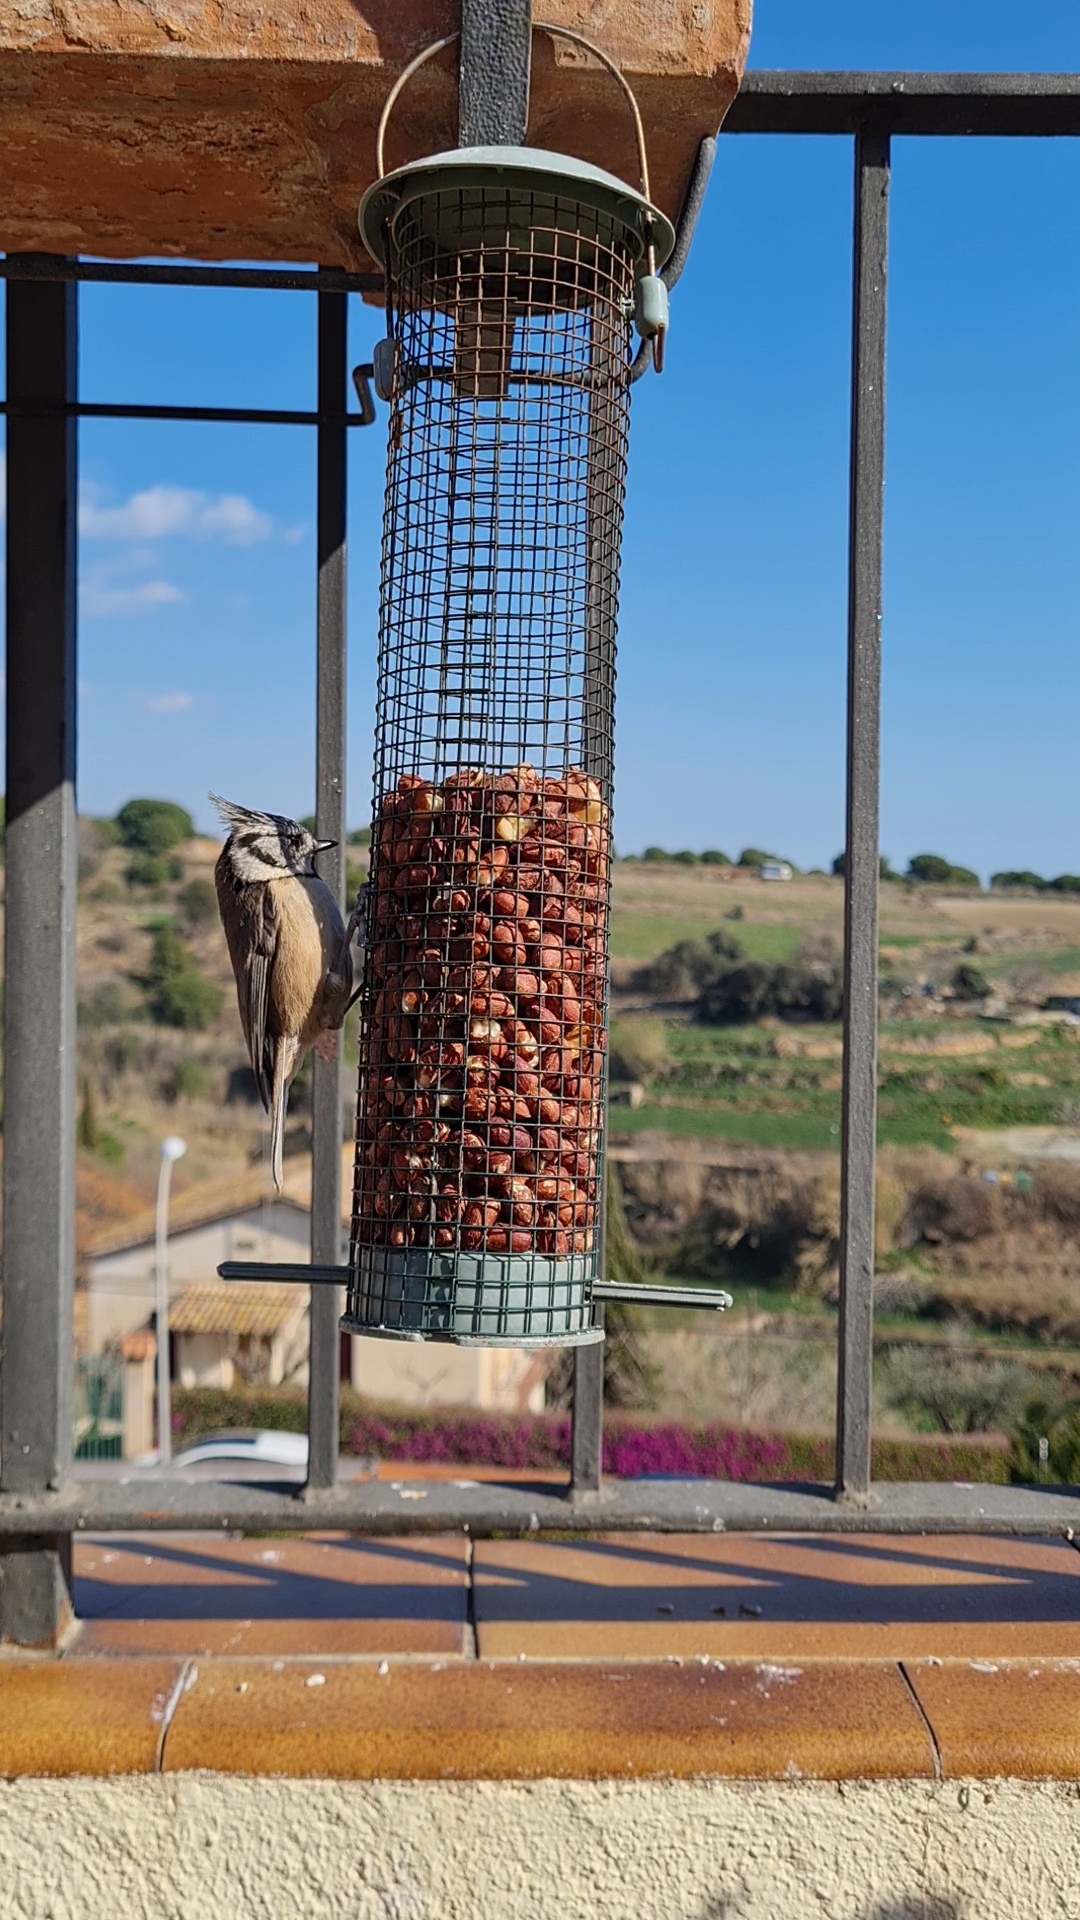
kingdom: Animalia
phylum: Chordata
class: Aves
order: Passeriformes
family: Paridae
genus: Lophophanes
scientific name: Lophophanes cristatus
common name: European crested tit
